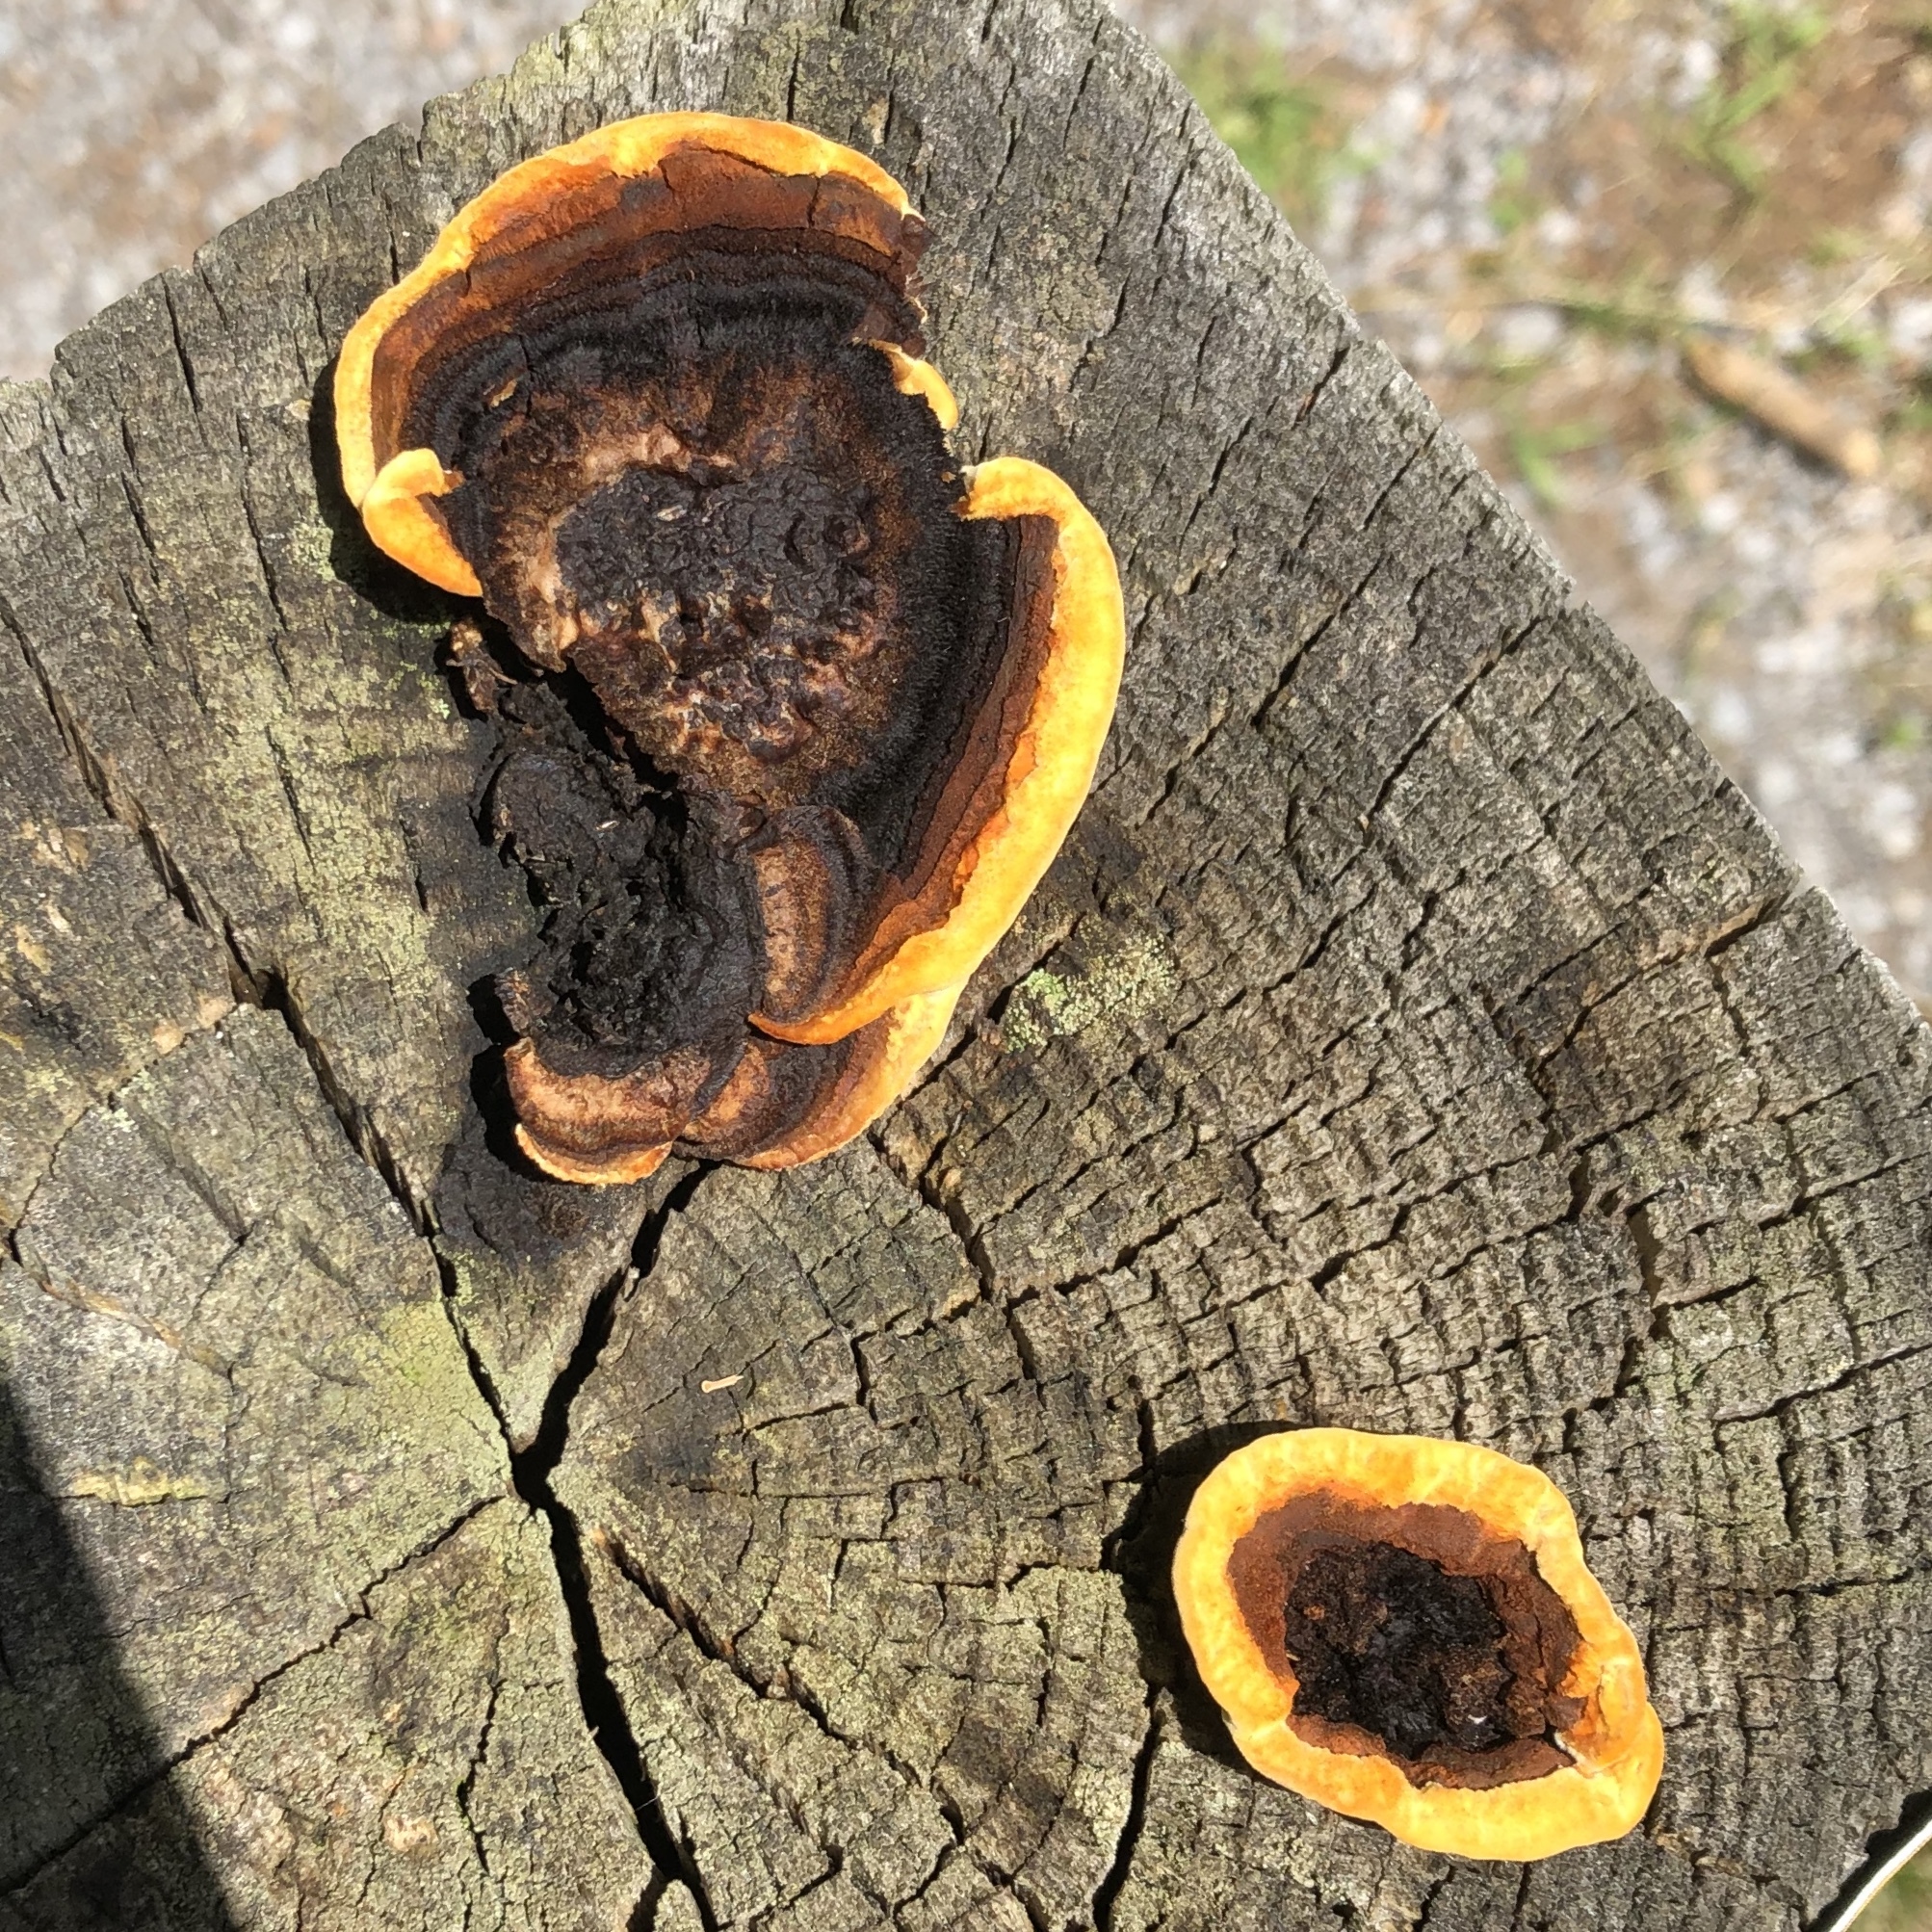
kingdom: Fungi
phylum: Basidiomycota
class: Agaricomycetes
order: Gloeophyllales
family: Gloeophyllaceae
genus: Gloeophyllum
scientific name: Gloeophyllum sepiarium
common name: Conifer mazegill
